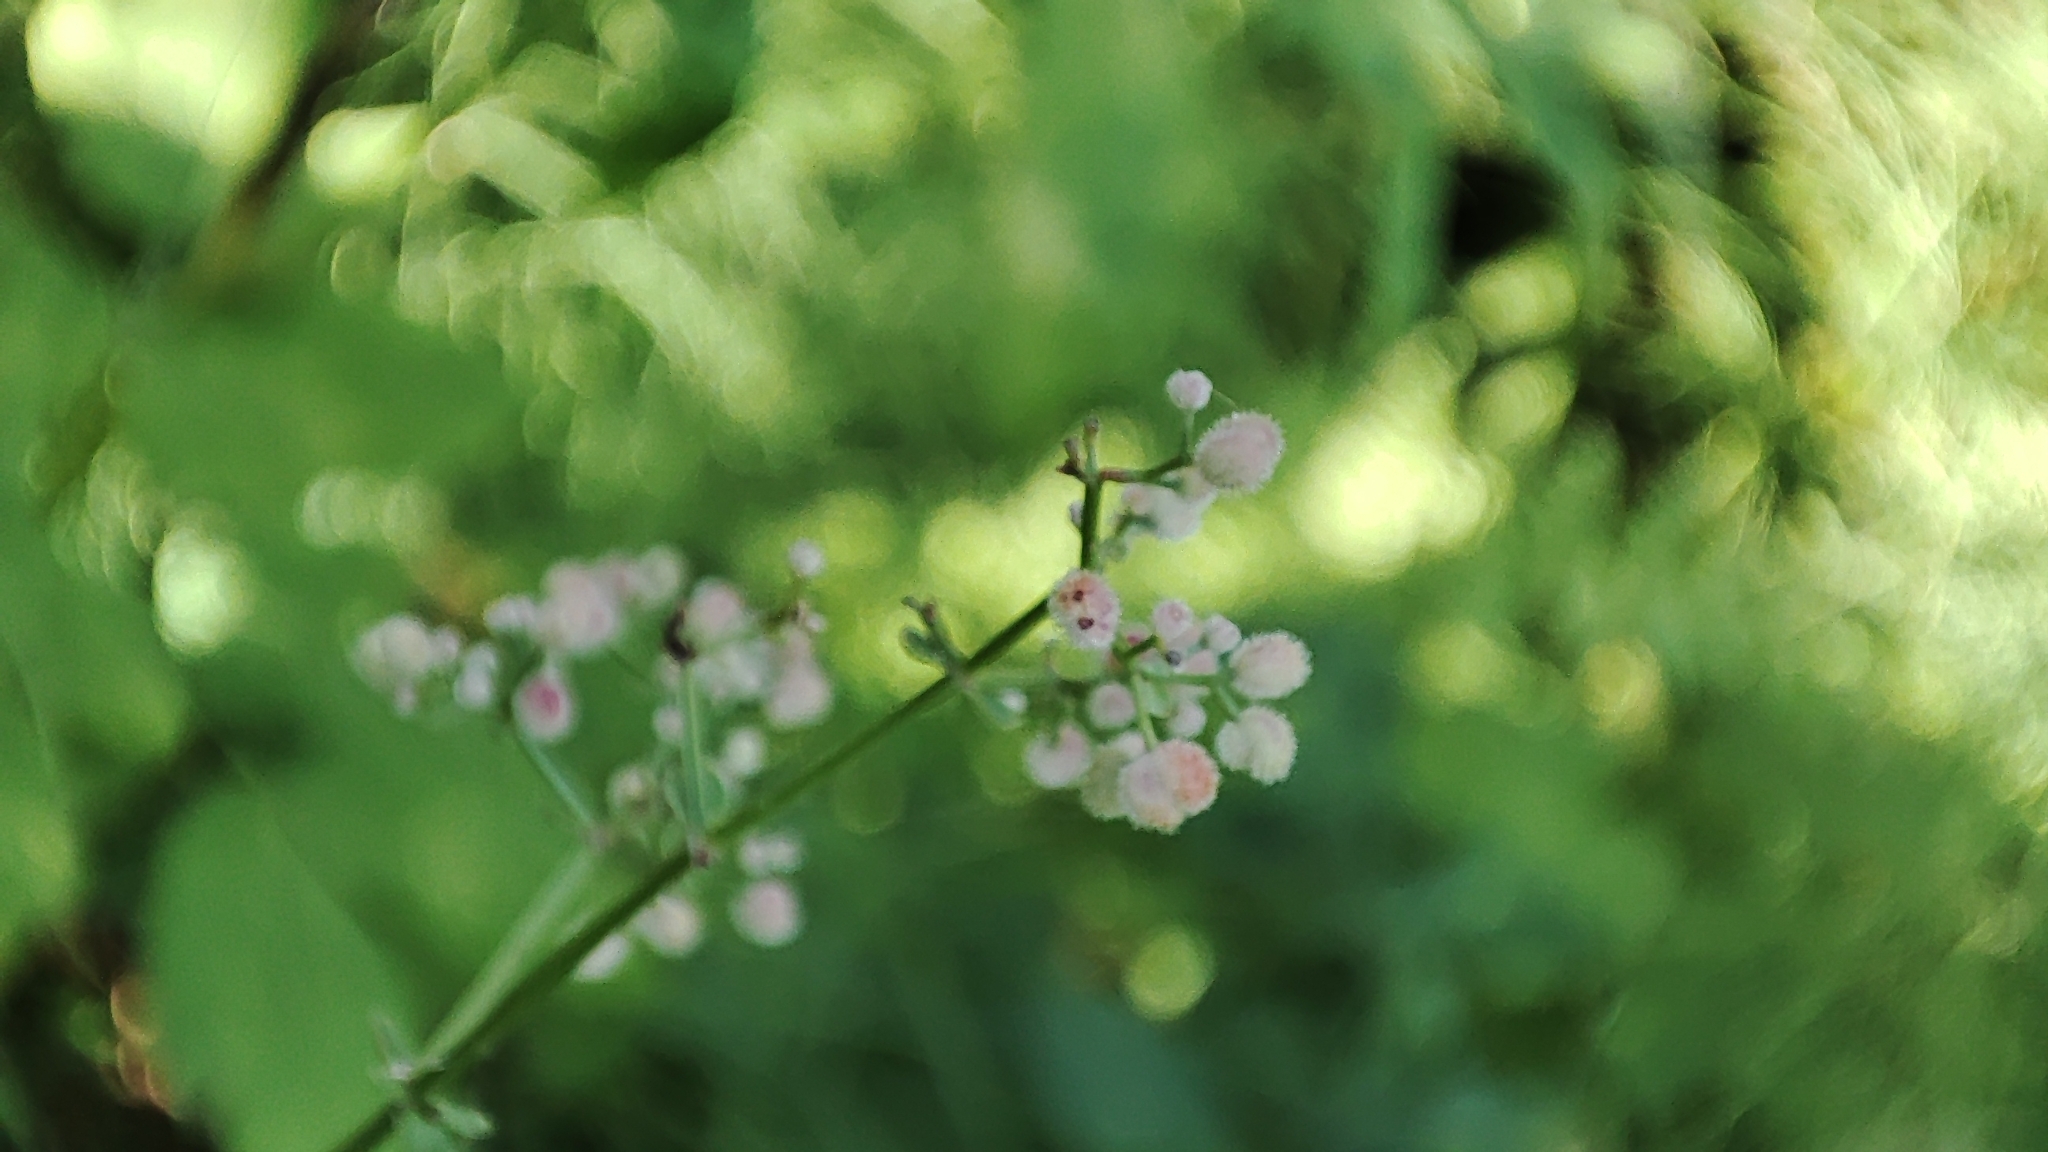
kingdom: Plantae
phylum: Tracheophyta
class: Magnoliopsida
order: Gentianales
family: Rubiaceae
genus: Galium
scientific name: Galium boreale
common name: Northern bedstraw
